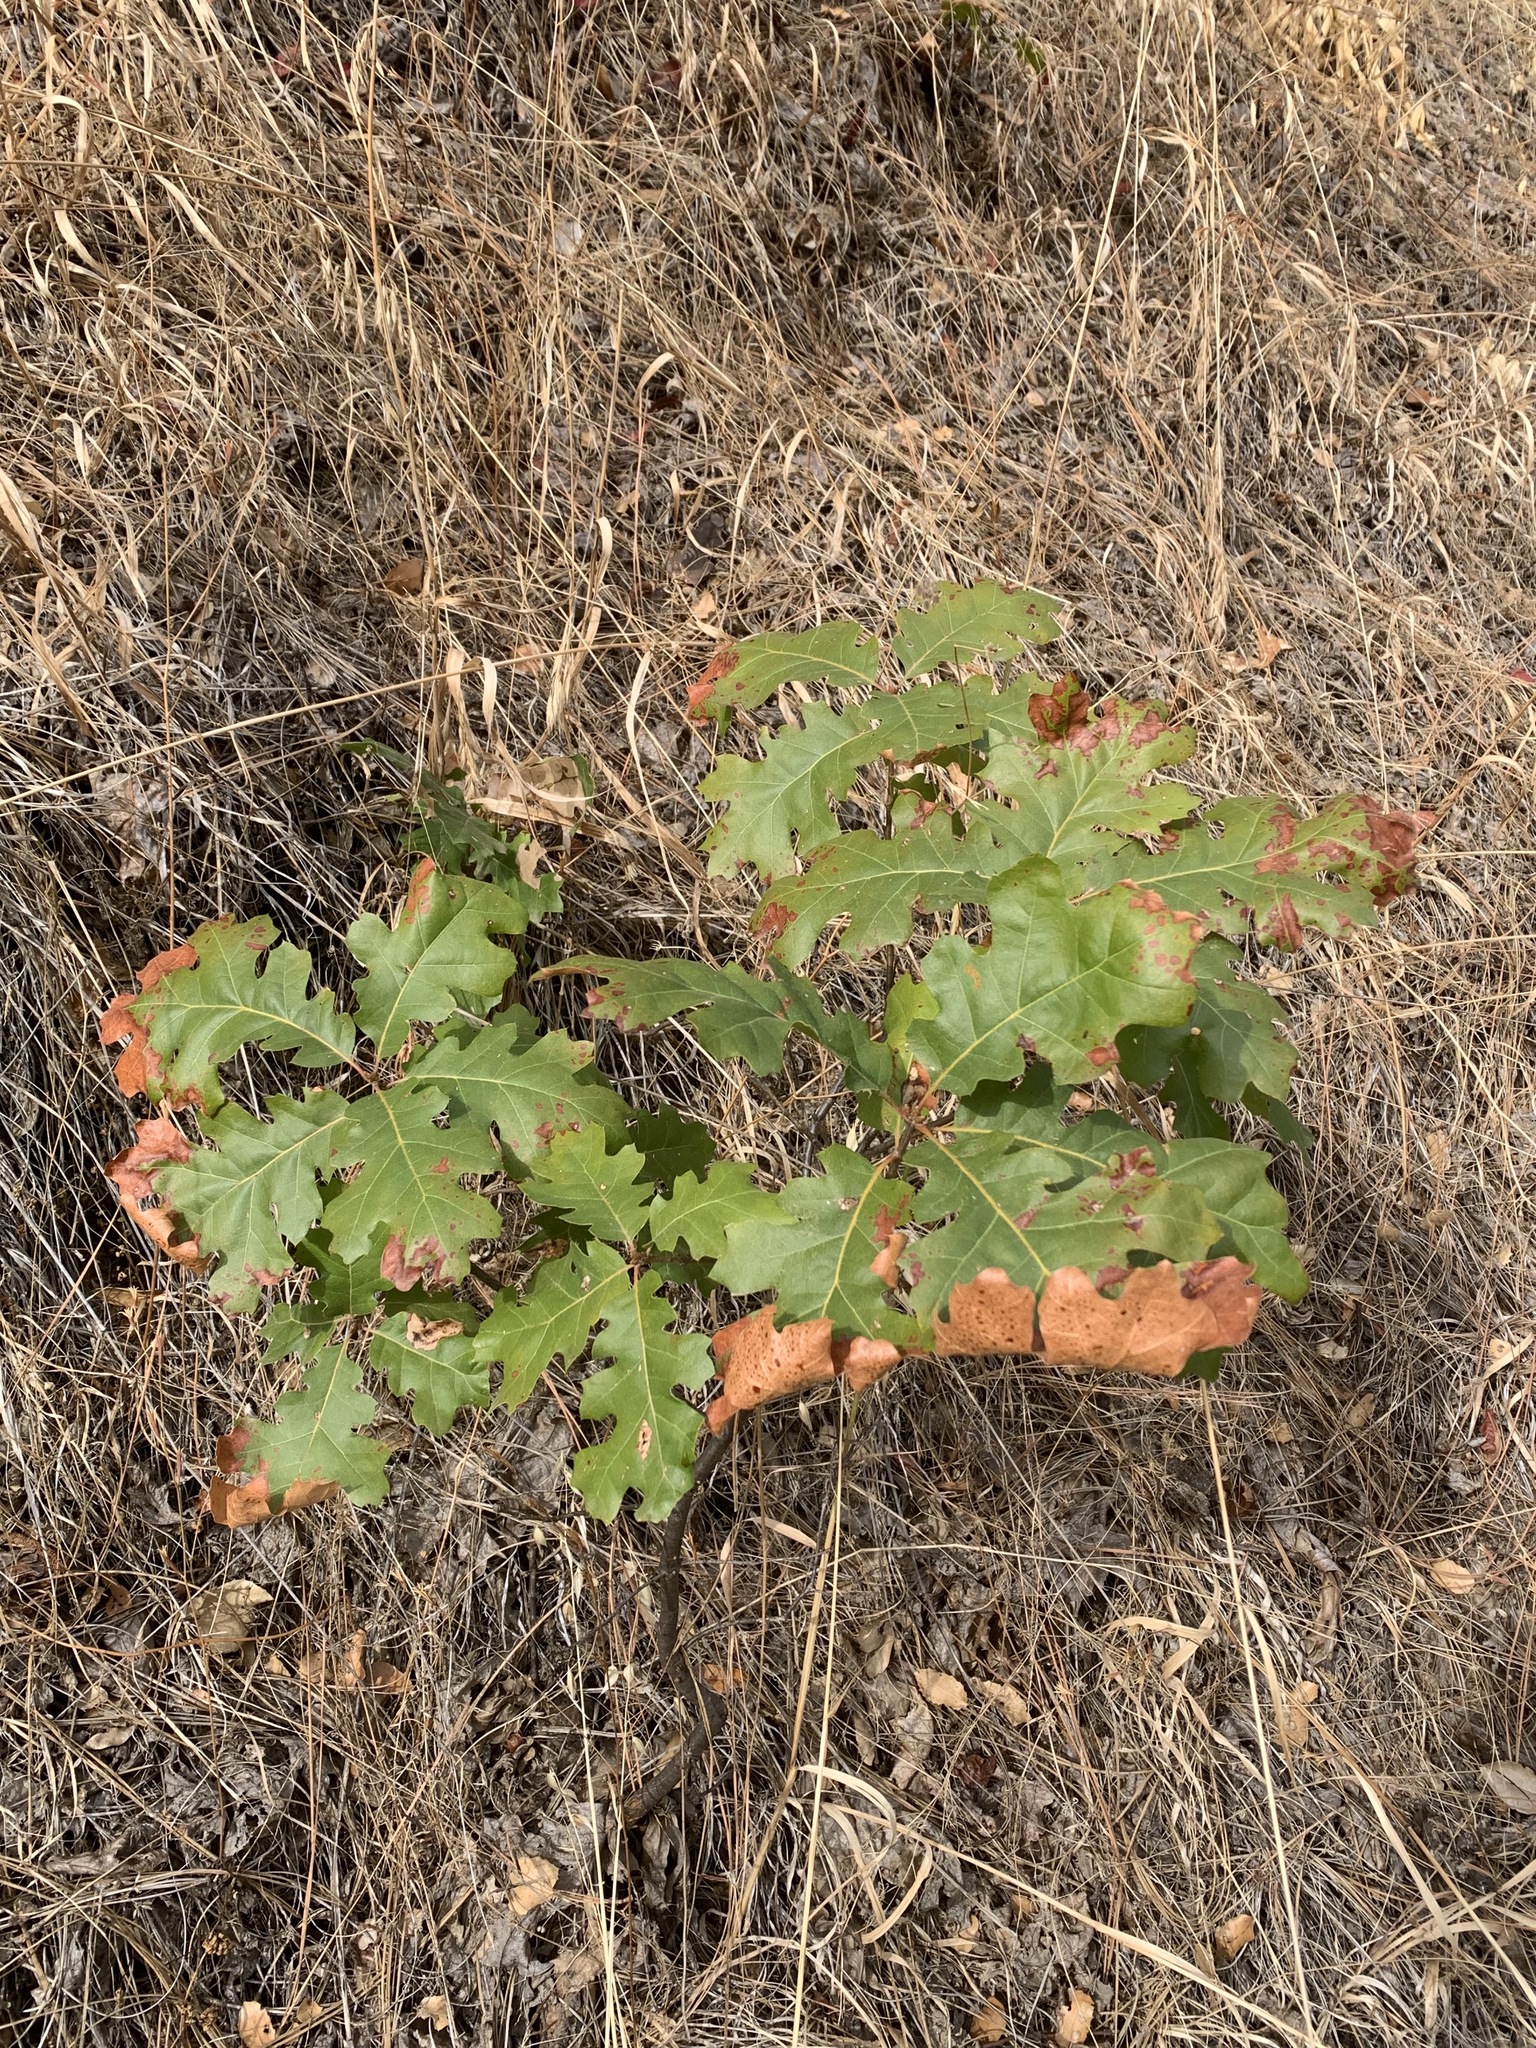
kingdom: Plantae
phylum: Tracheophyta
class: Magnoliopsida
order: Fagales
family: Fagaceae
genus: Quercus
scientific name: Quercus kelloggii
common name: California black oak
